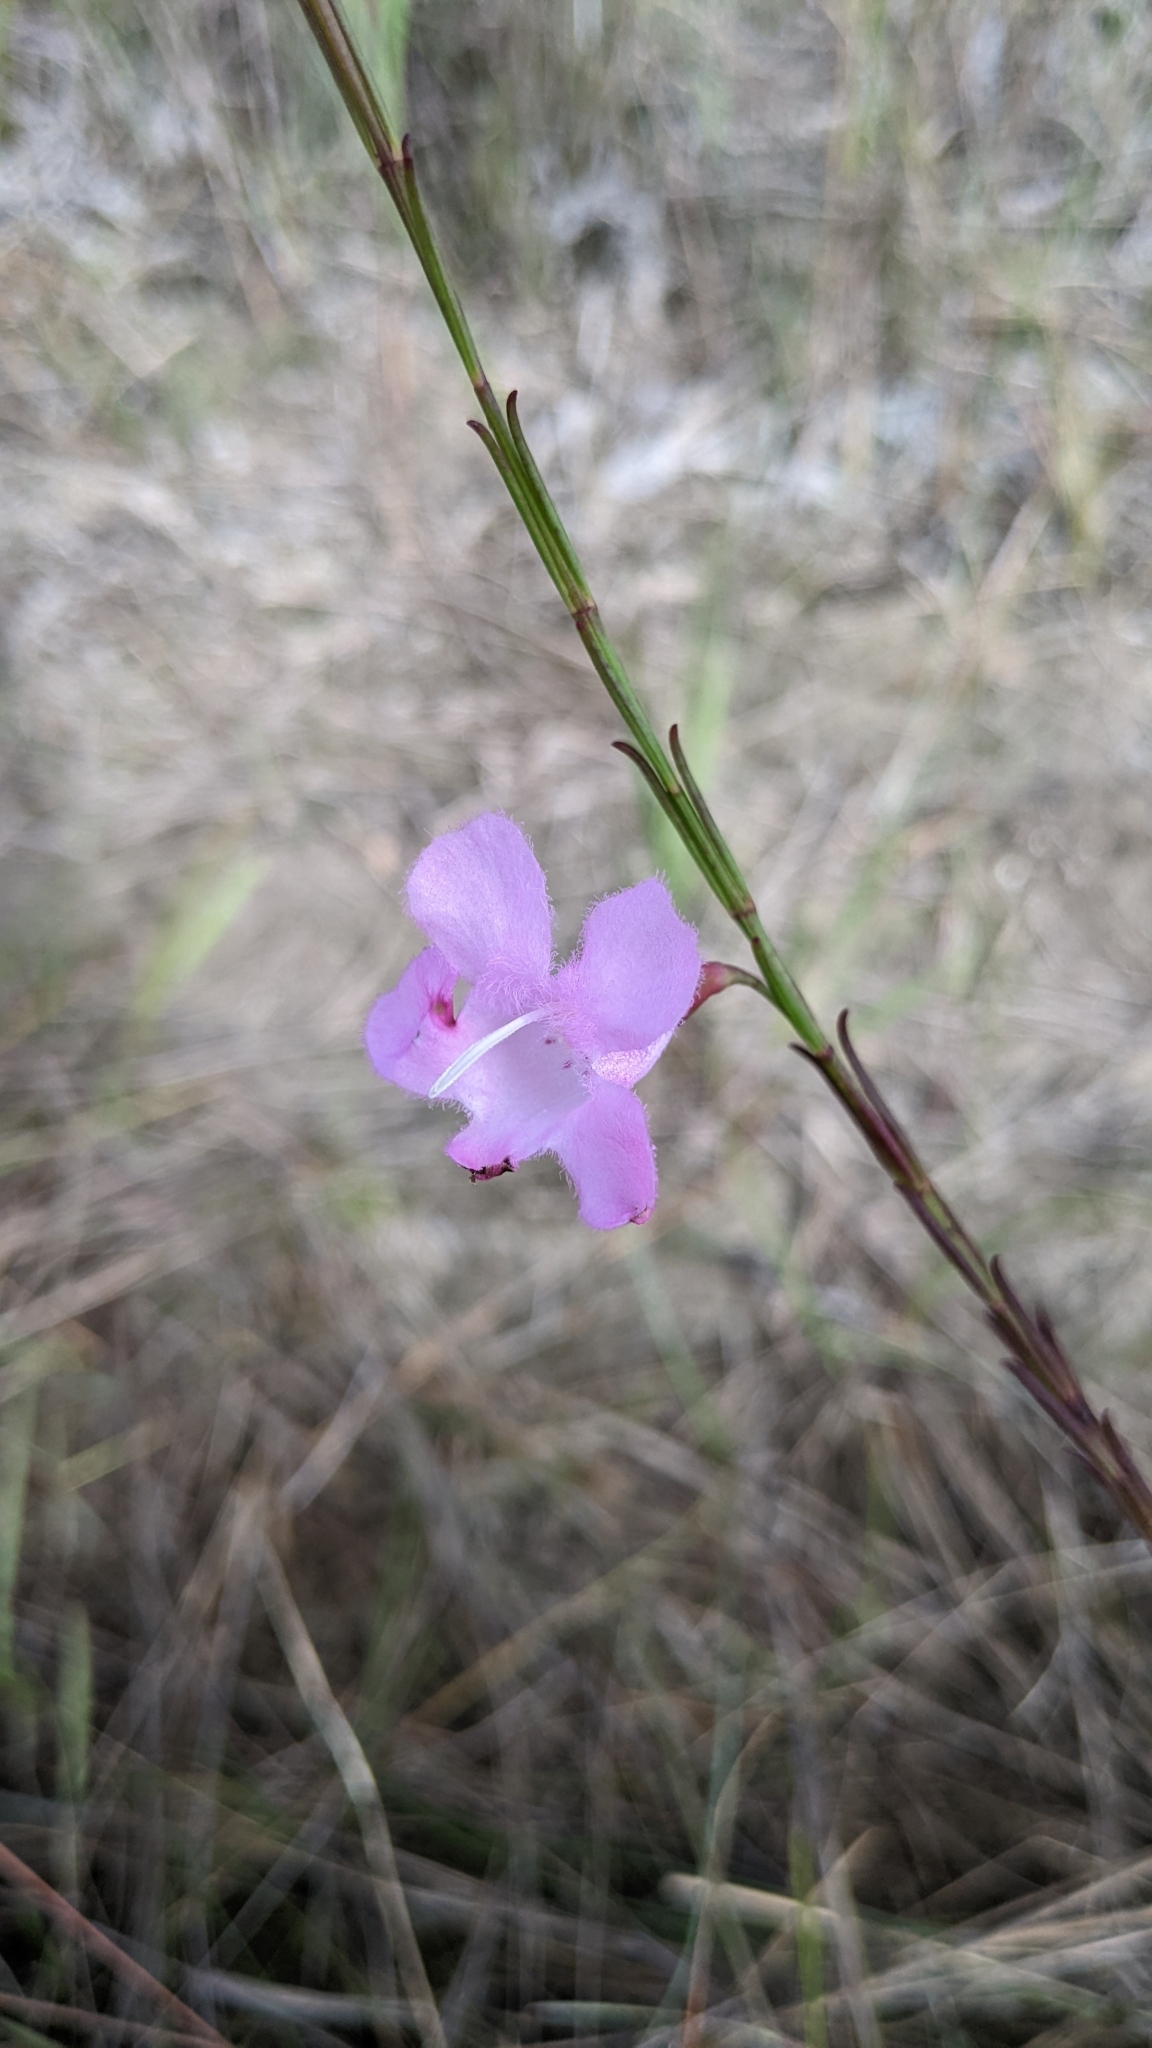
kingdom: Plantae
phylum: Tracheophyta
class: Magnoliopsida
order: Lamiales
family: Orobanchaceae
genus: Agalinis
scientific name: Agalinis linifolia
